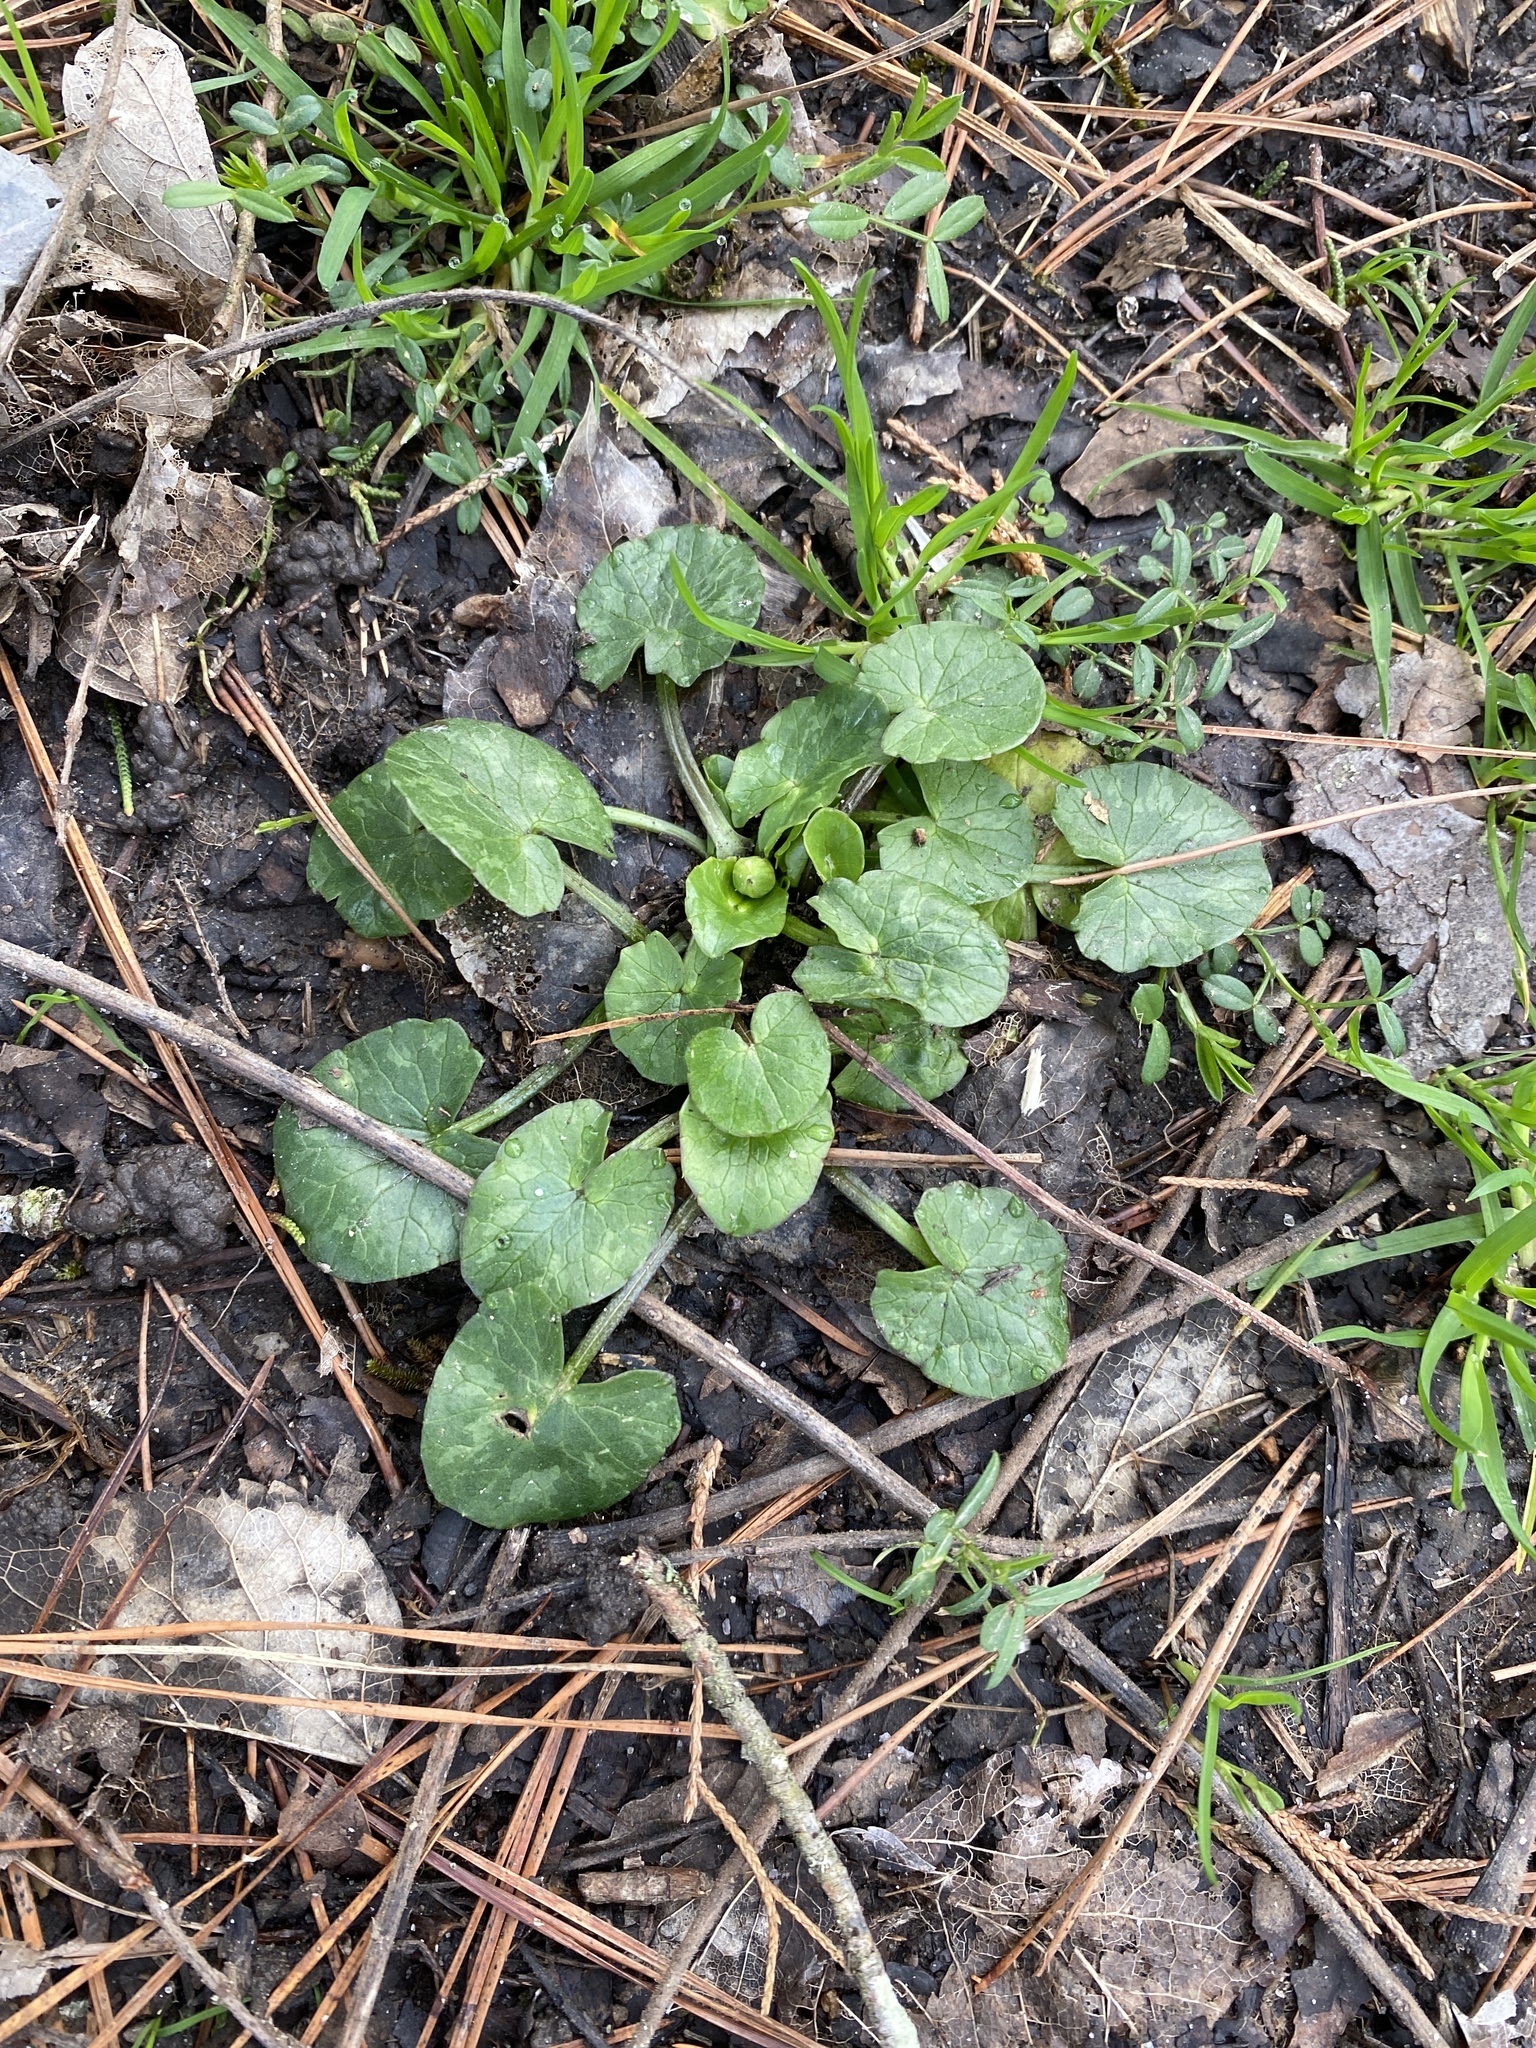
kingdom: Plantae
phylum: Tracheophyta
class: Magnoliopsida
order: Ranunculales
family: Ranunculaceae
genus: Ficaria
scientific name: Ficaria verna
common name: Lesser celandine
